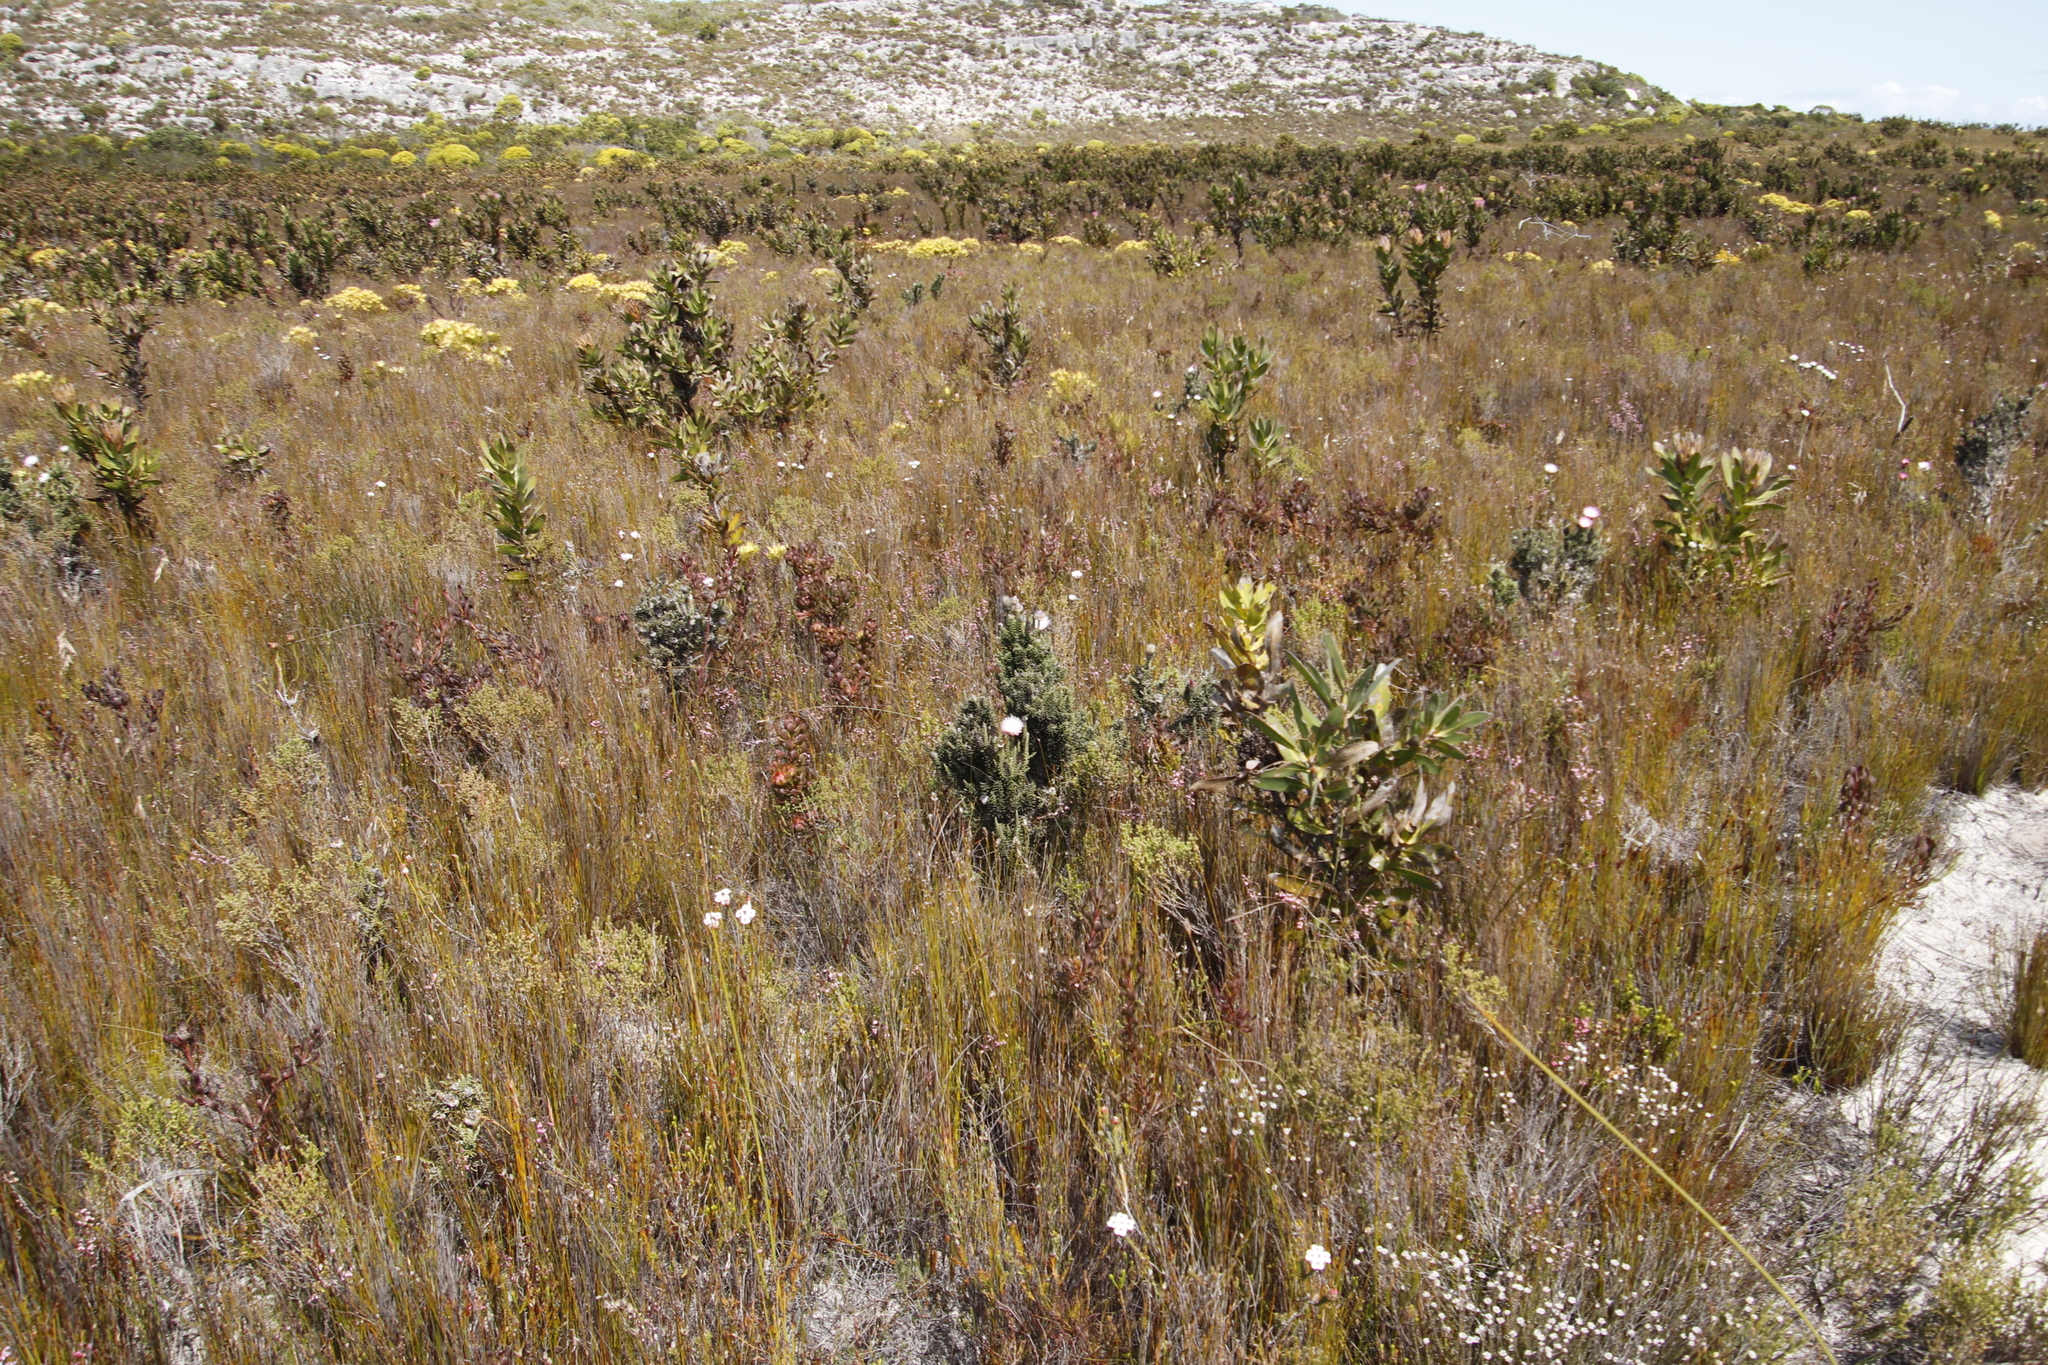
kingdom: Plantae
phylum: Tracheophyta
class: Magnoliopsida
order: Asterales
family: Asteraceae
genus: Phaenocoma
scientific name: Phaenocoma prolifera
